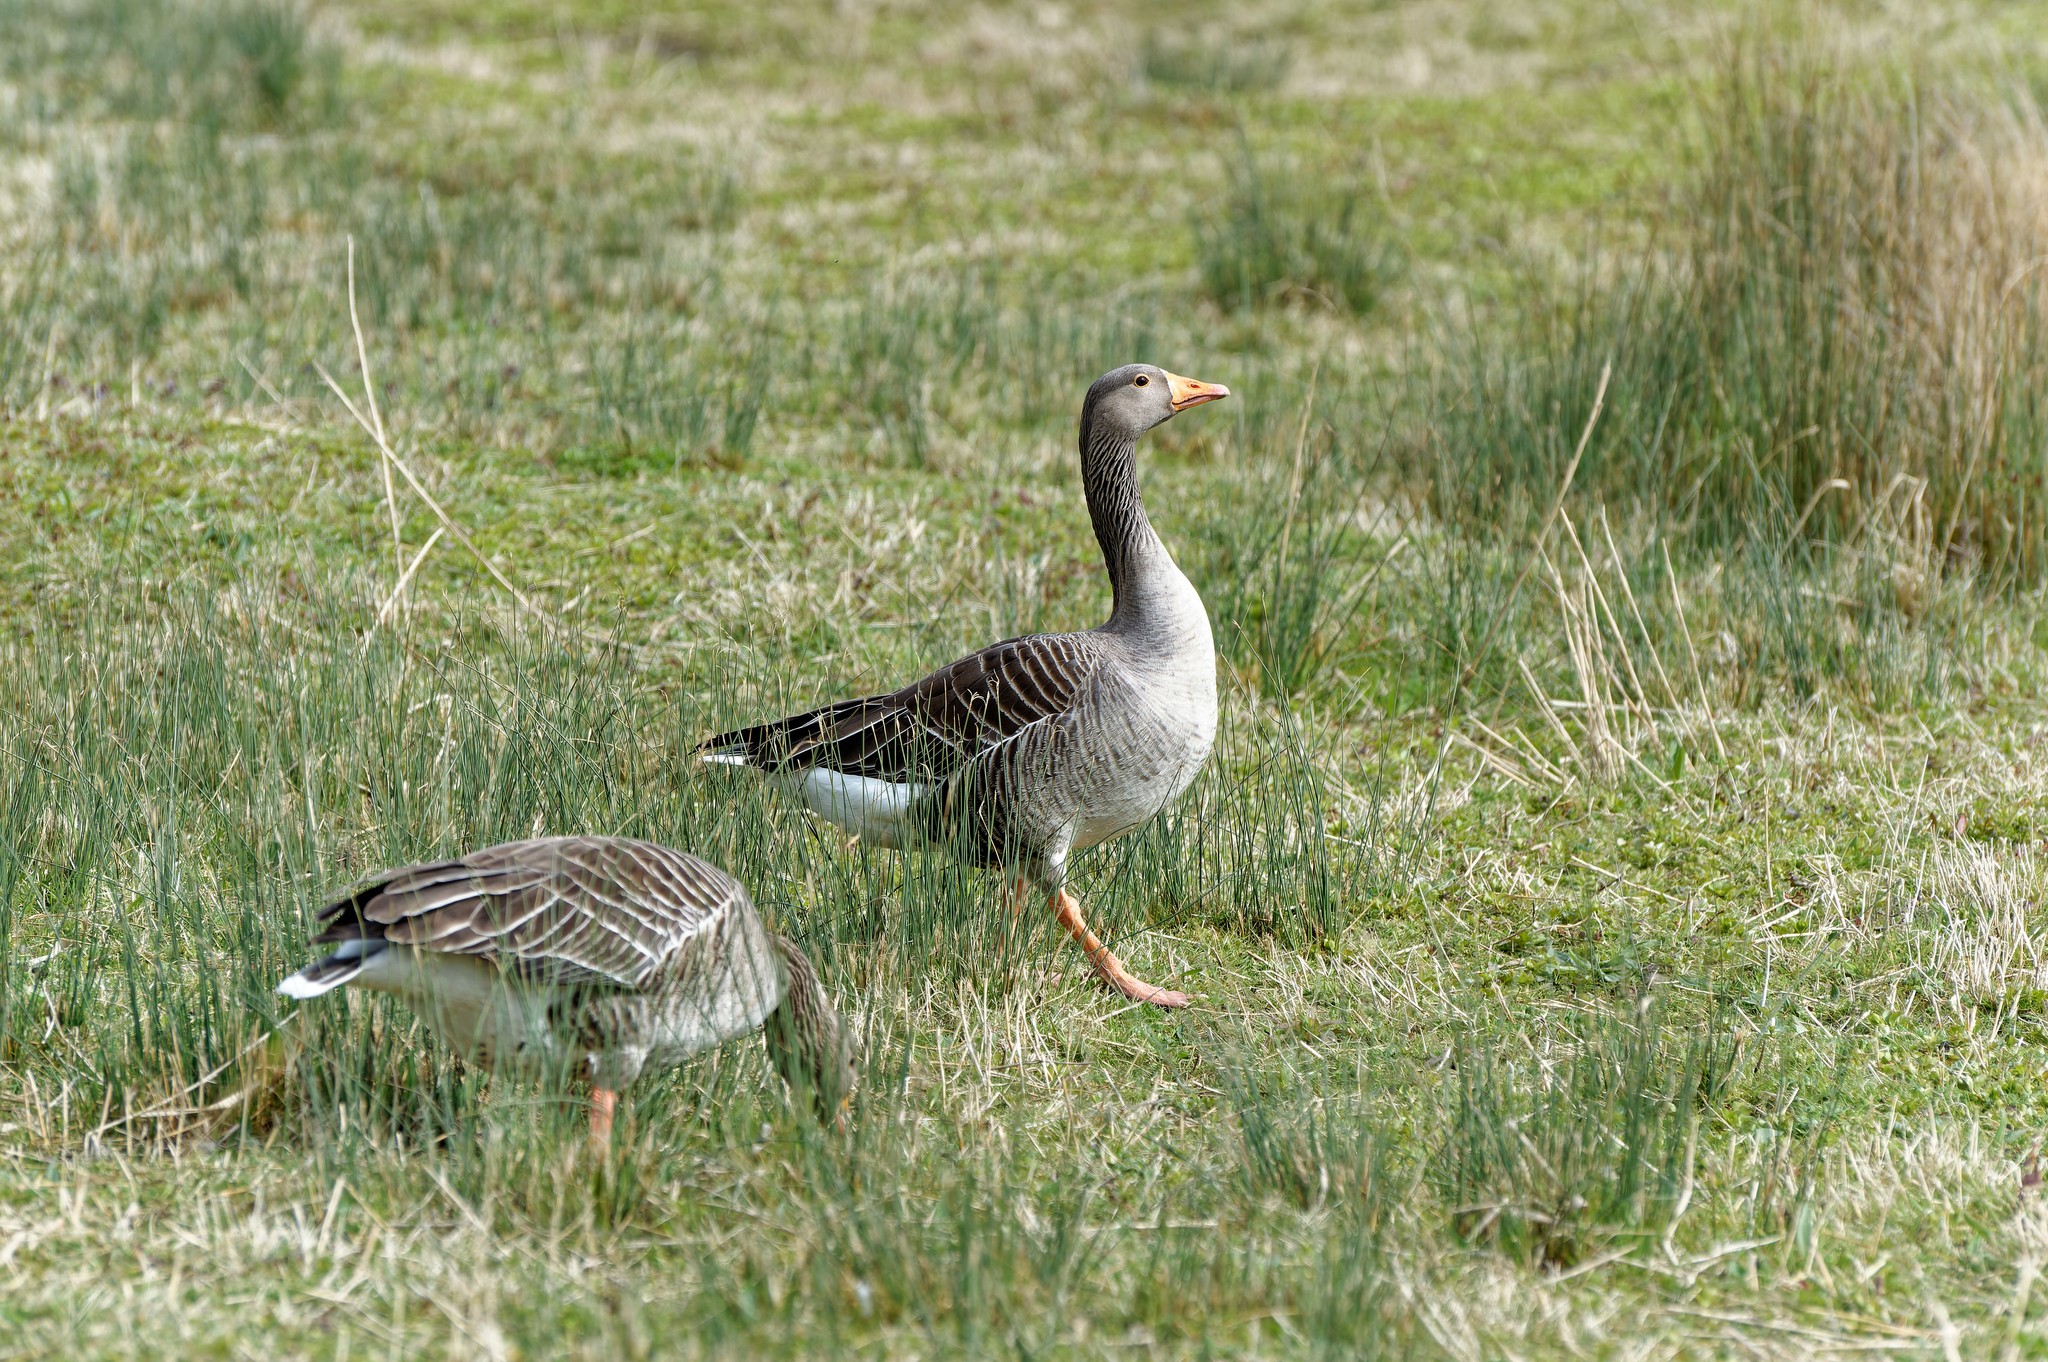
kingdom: Animalia
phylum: Chordata
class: Aves
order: Anseriformes
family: Anatidae
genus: Anser
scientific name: Anser anser
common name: Greylag goose
